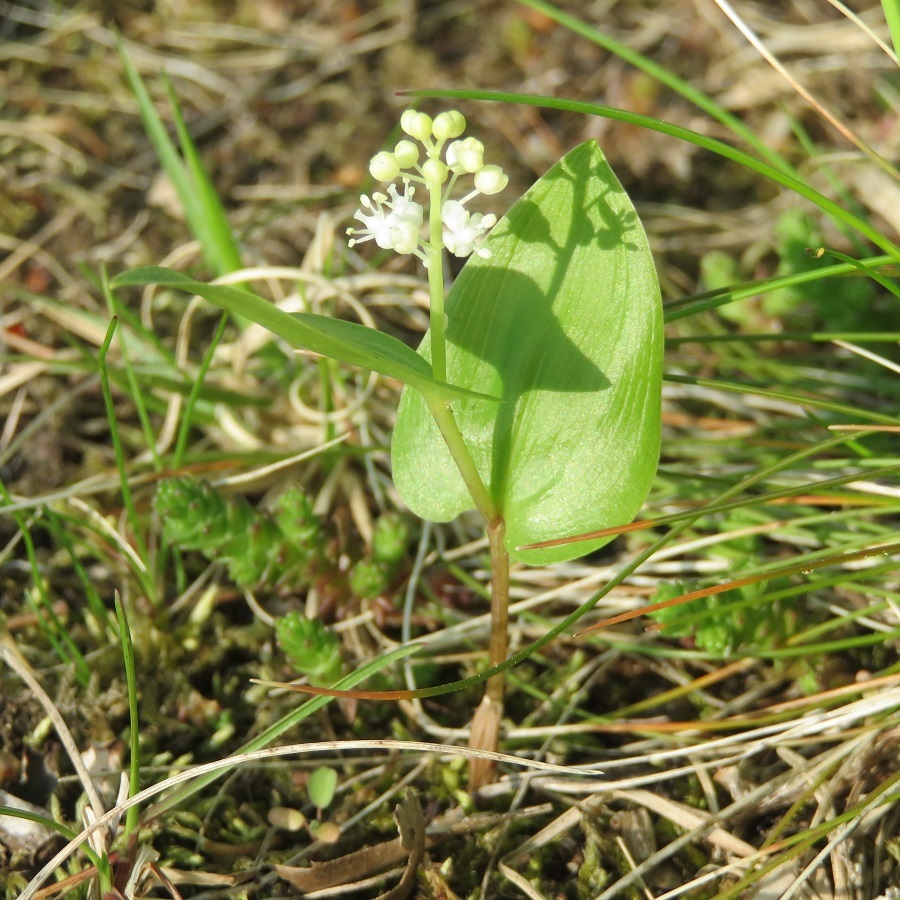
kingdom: Plantae
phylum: Tracheophyta
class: Liliopsida
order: Asparagales
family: Asparagaceae
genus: Maianthemum
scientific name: Maianthemum canadense
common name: False lily-of-the-valley
